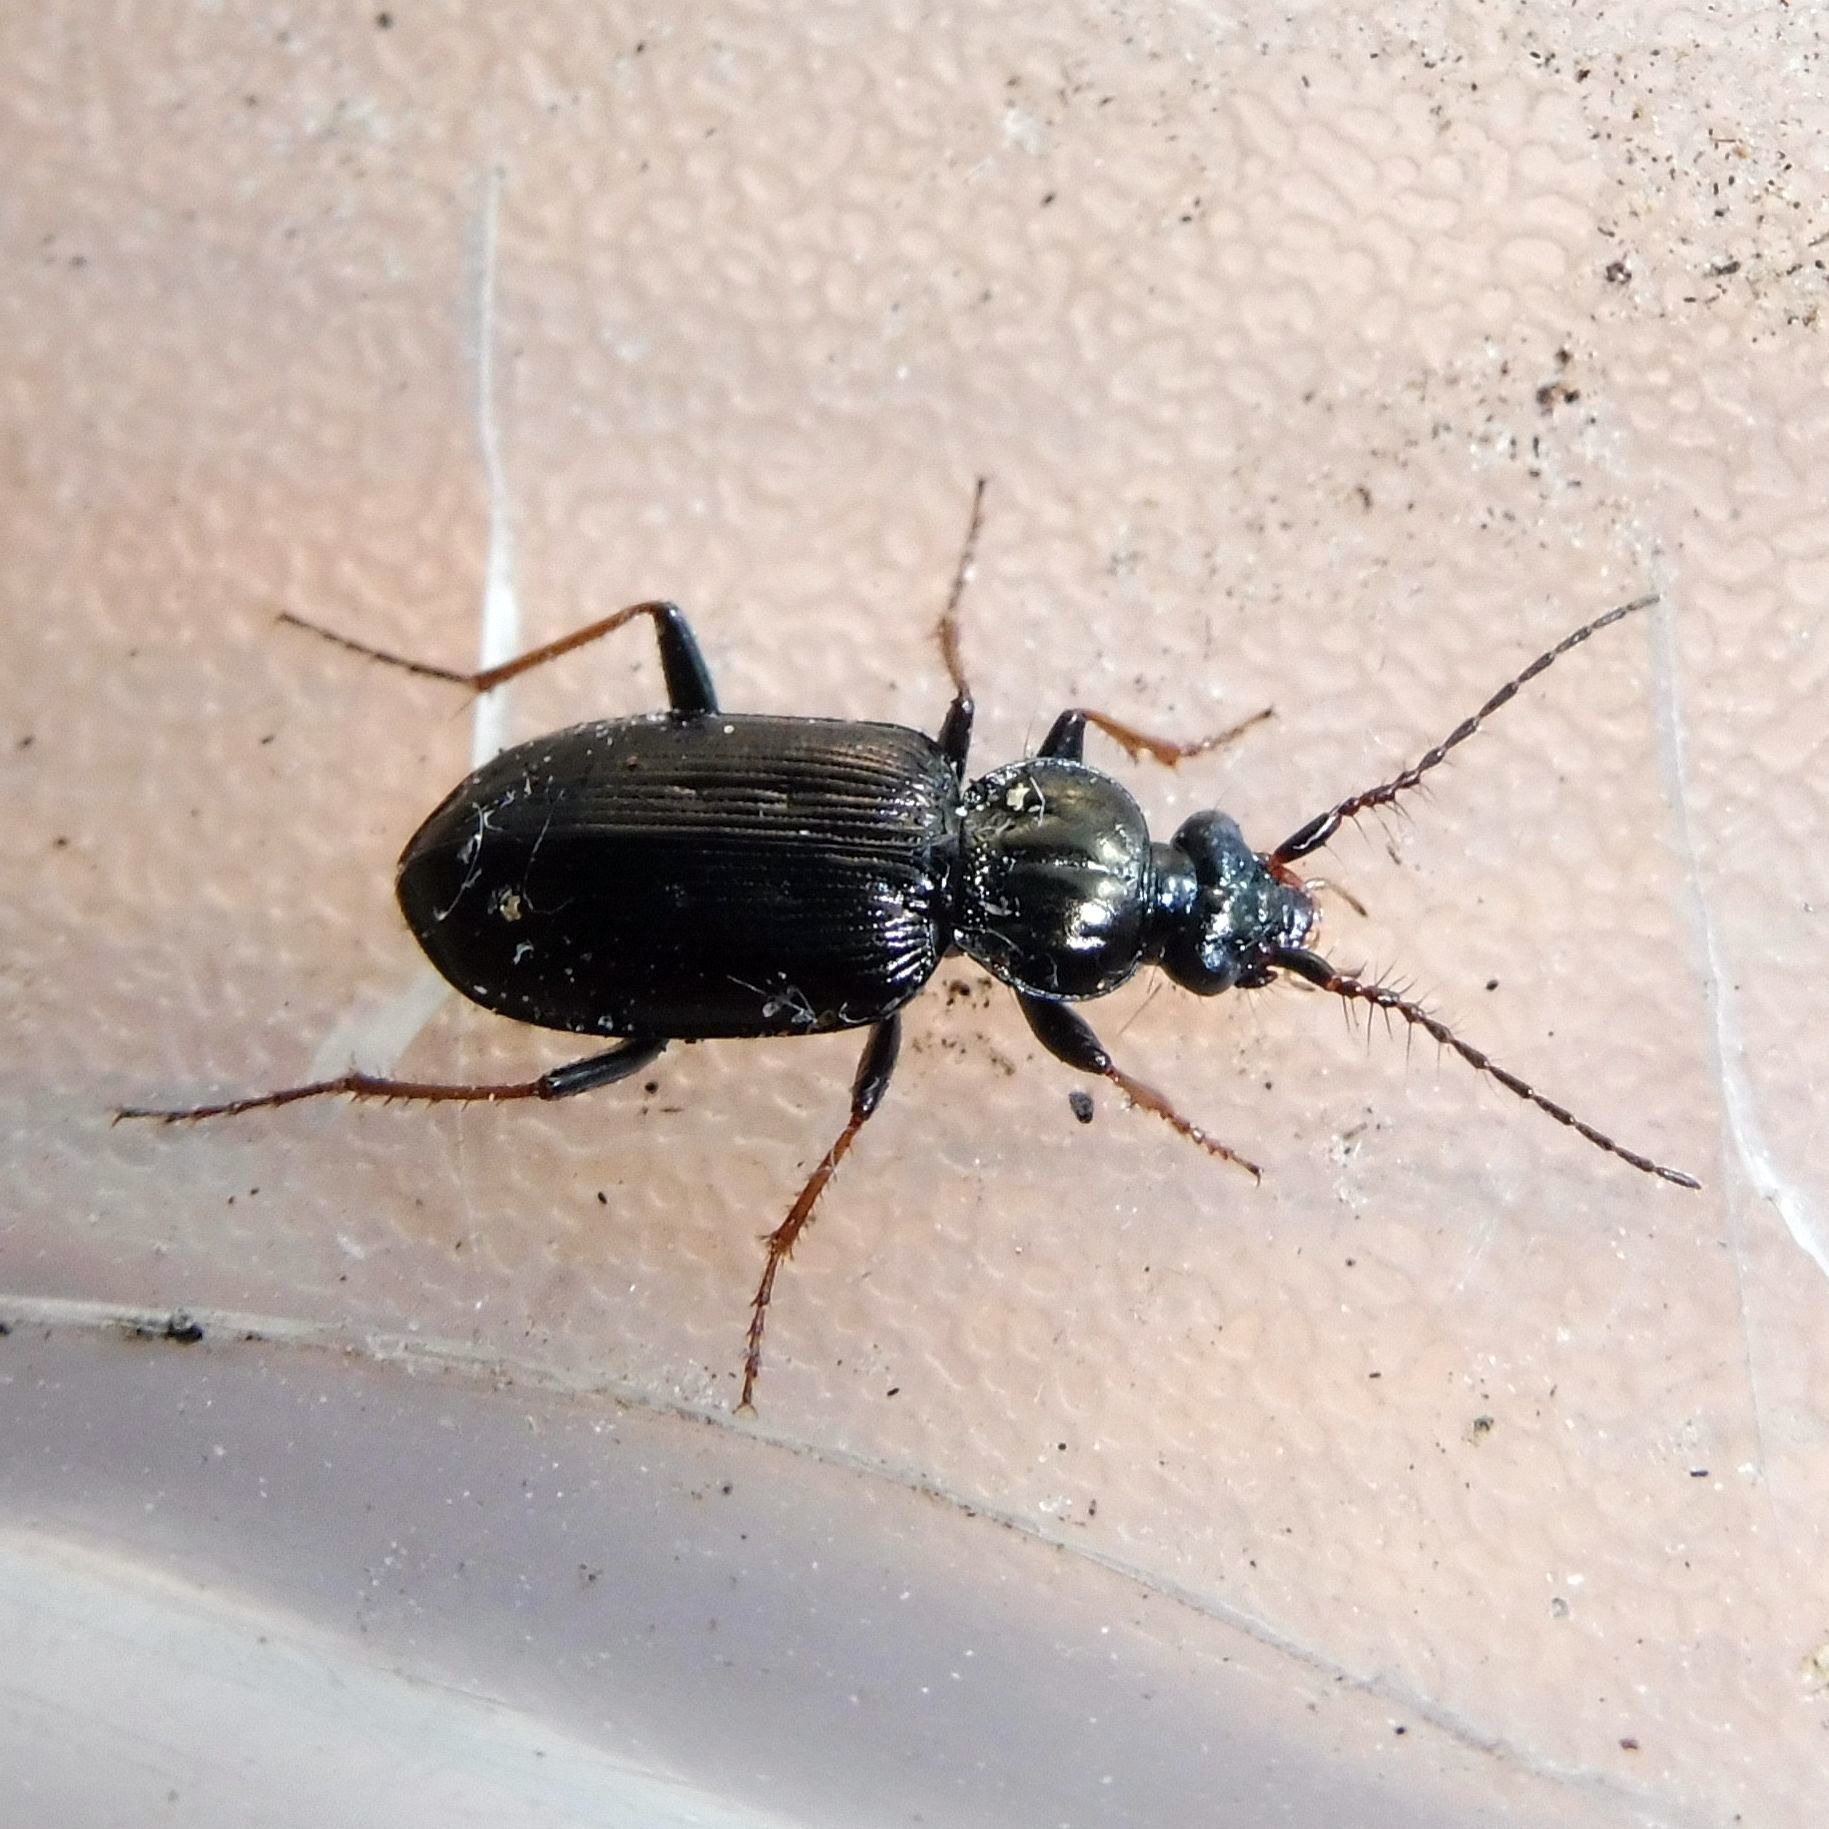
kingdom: Animalia
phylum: Arthropoda
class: Insecta
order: Coleoptera
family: Carabidae
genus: Loricera
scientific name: Loricera pilicornis
